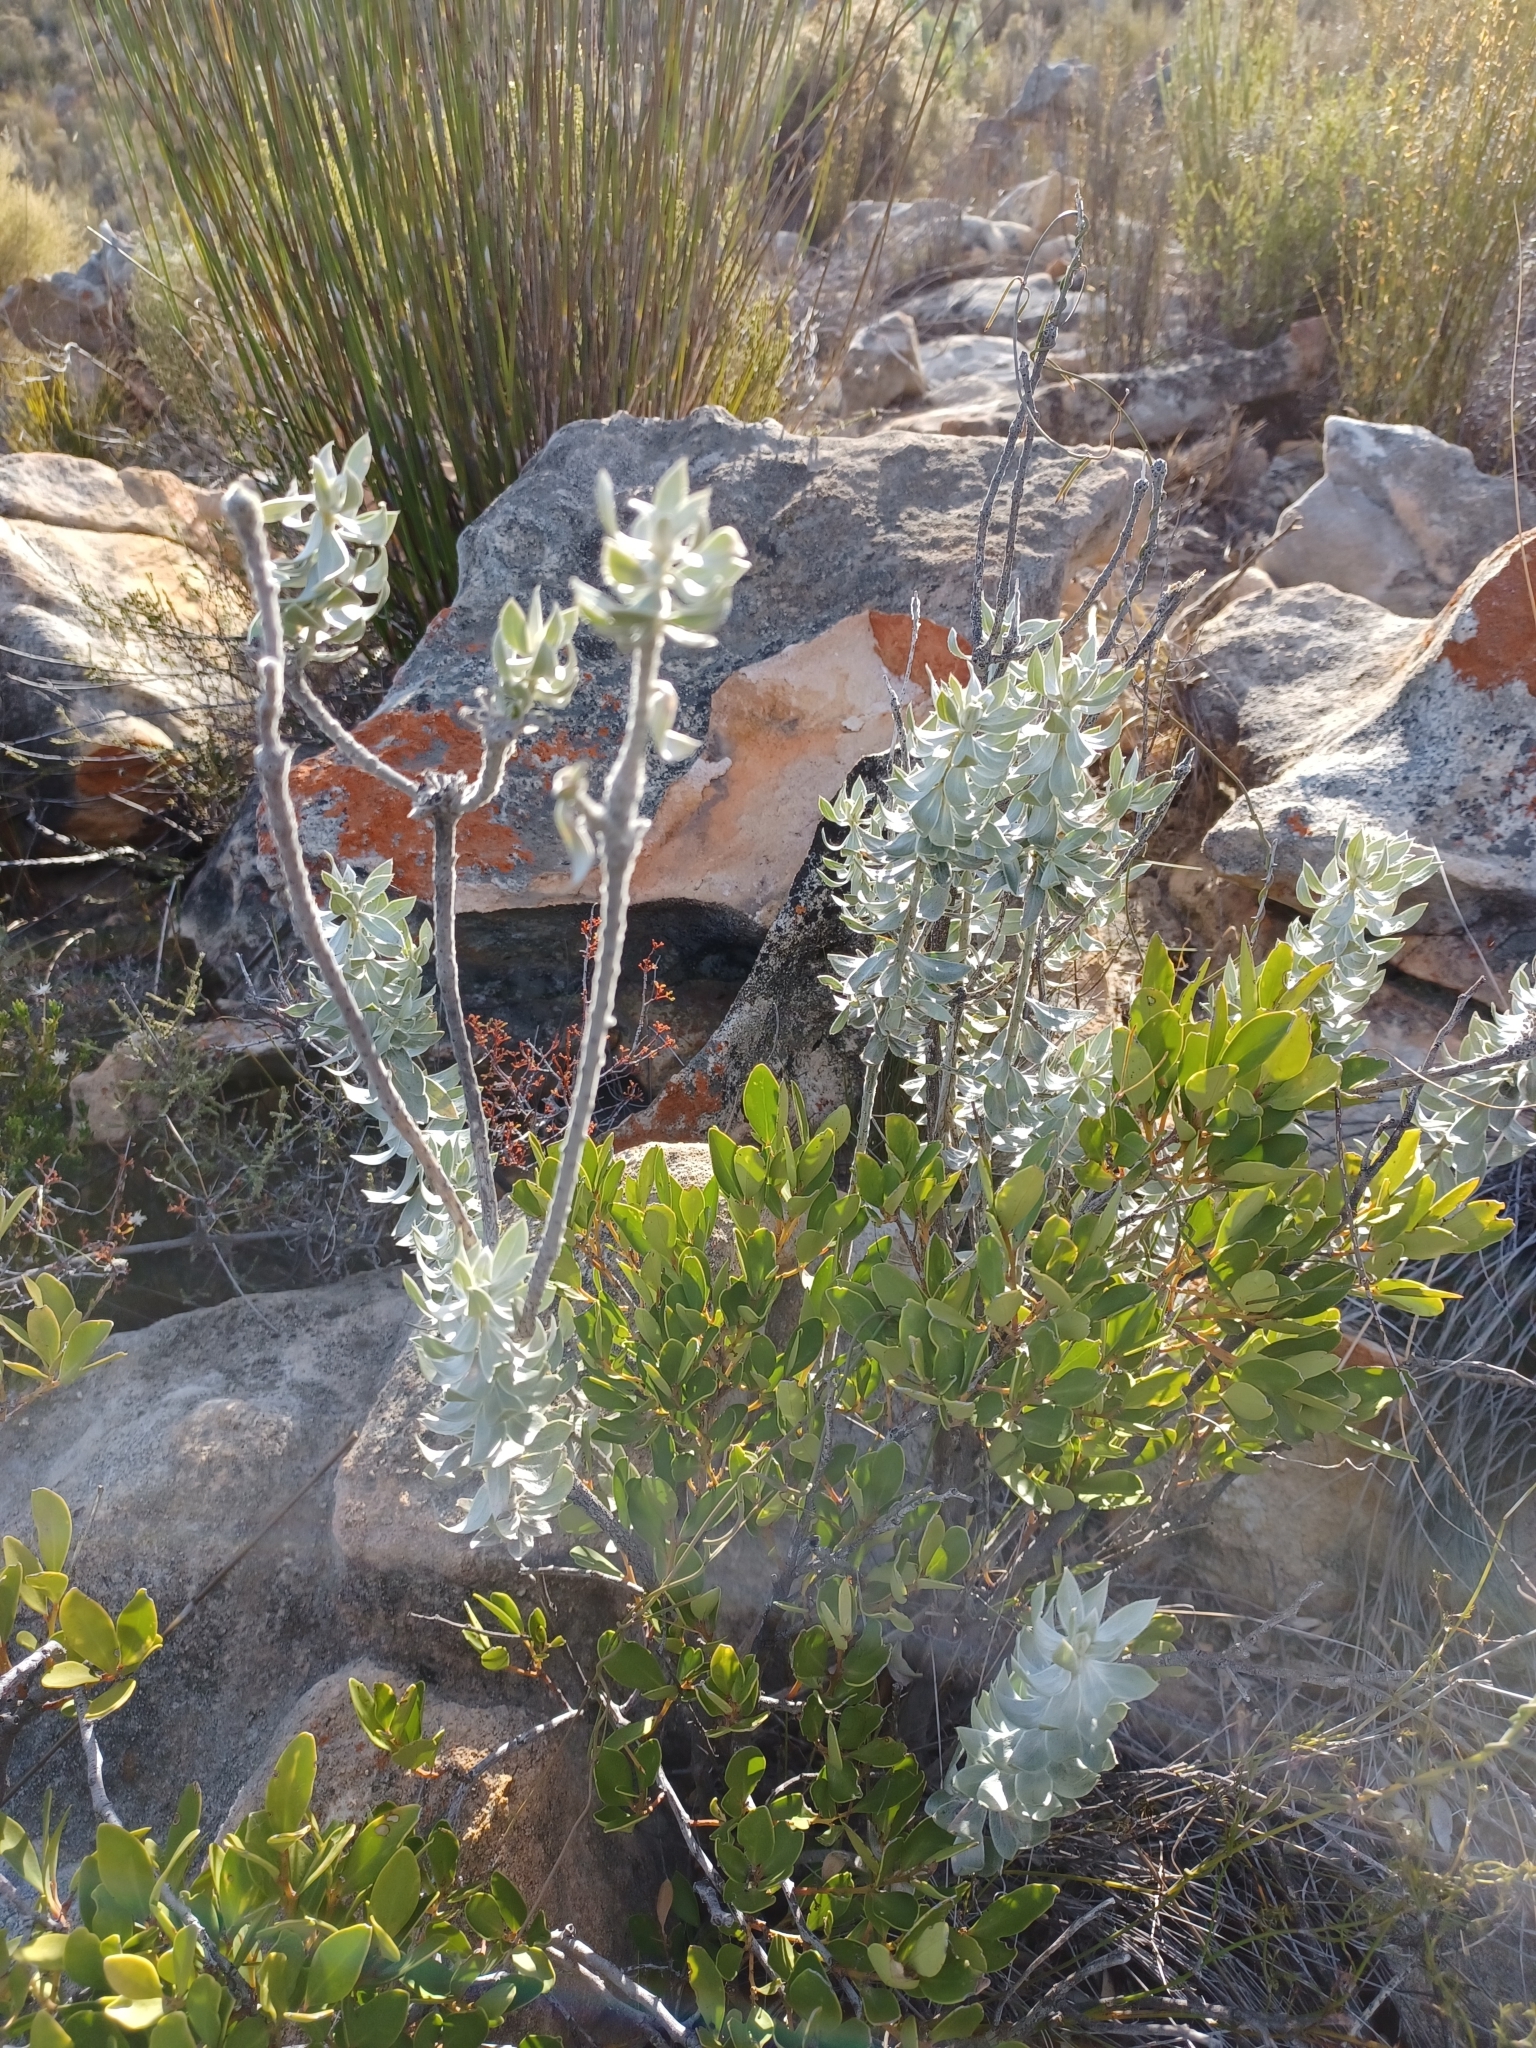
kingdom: Plantae
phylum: Tracheophyta
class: Magnoliopsida
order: Fabales
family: Fabaceae
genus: Xiphotheca
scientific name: Xiphotheca fruticosa
